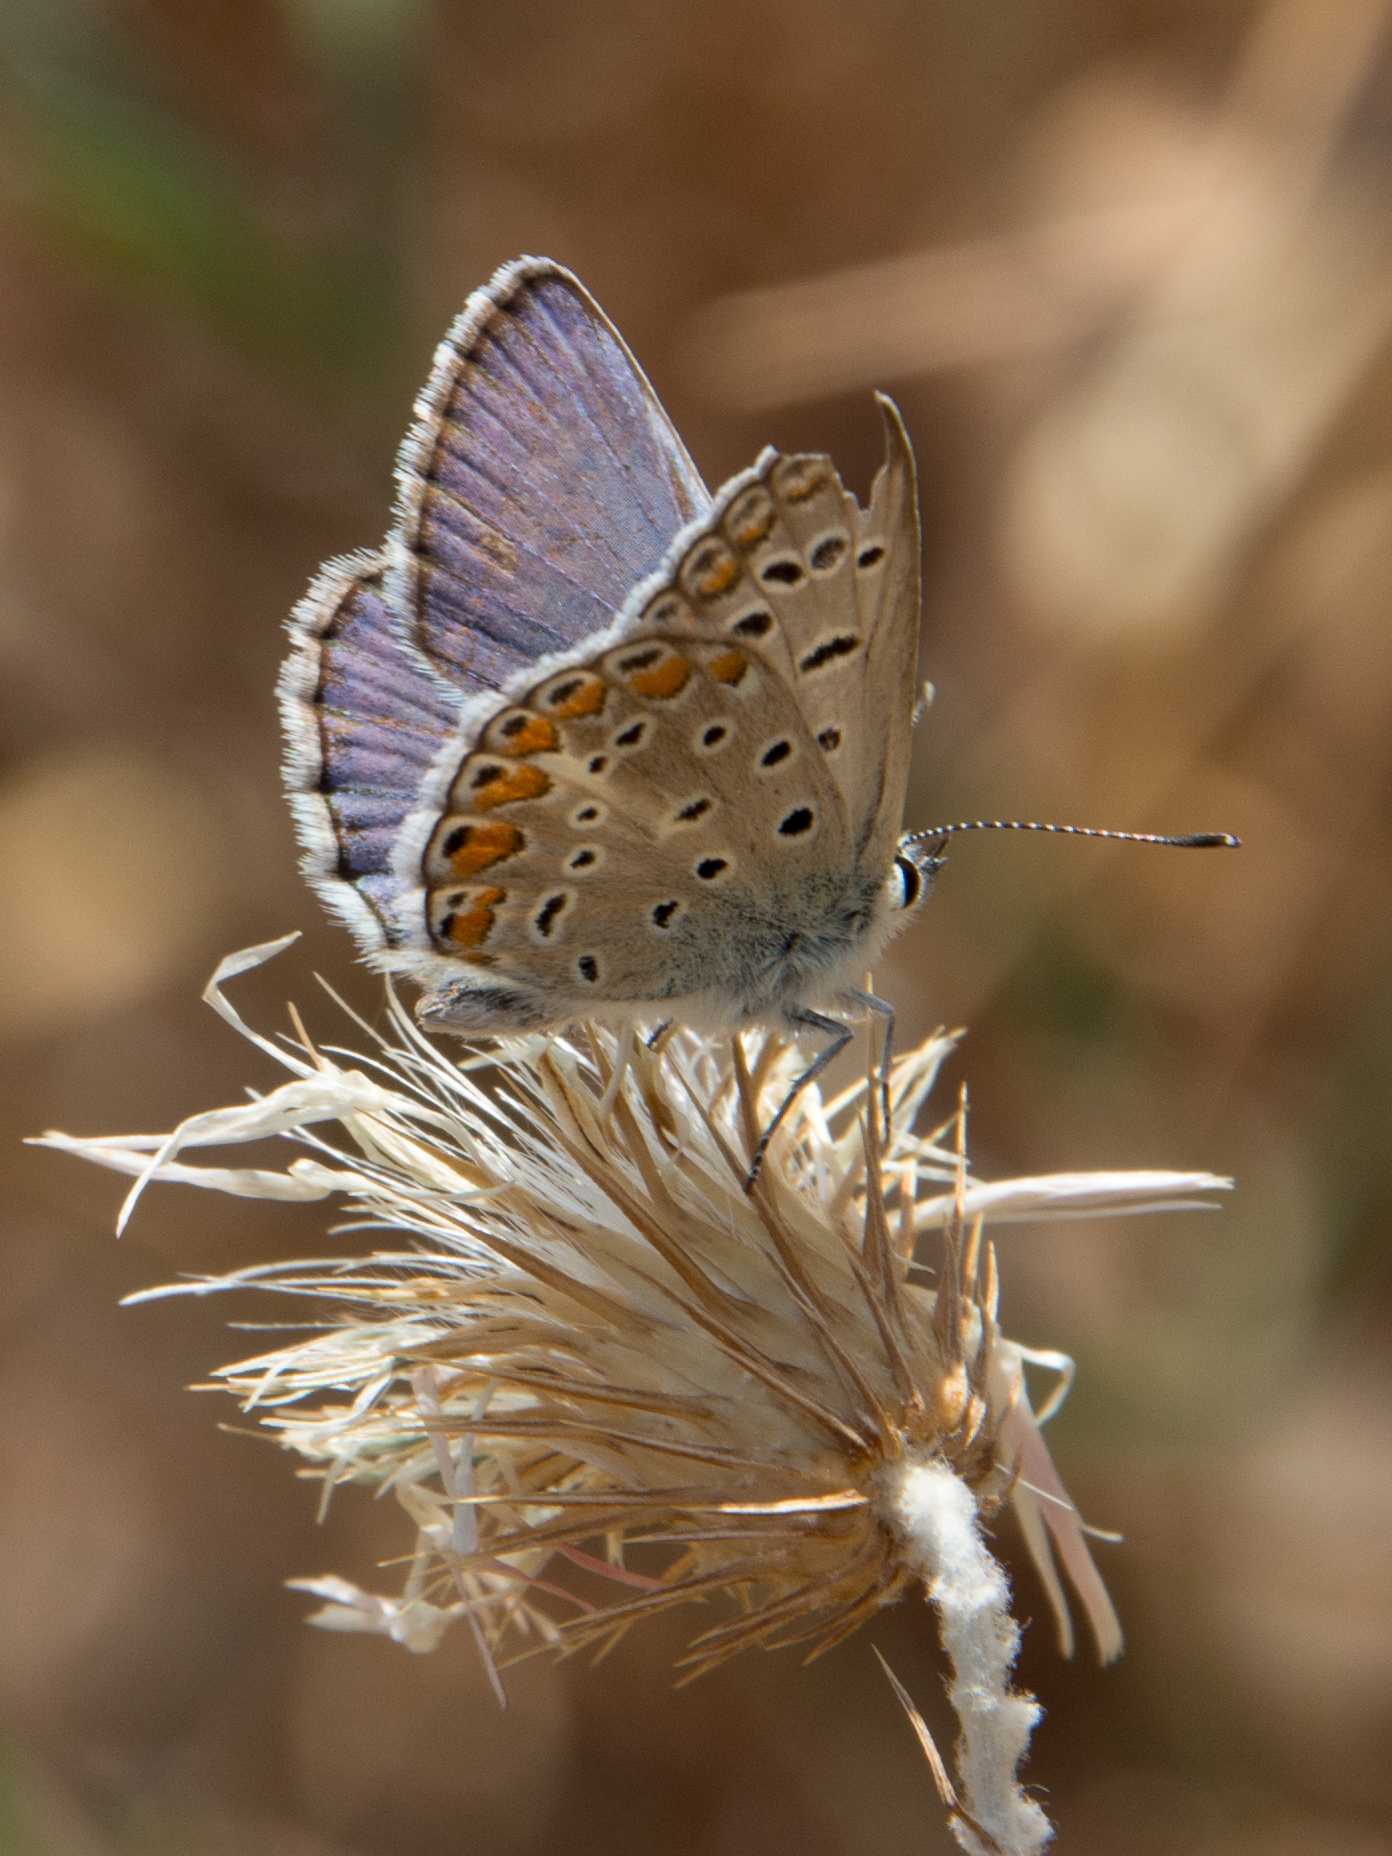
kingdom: Animalia
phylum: Arthropoda
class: Insecta
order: Lepidoptera
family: Lycaenidae
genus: Polyommatus
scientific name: Polyommatus celina
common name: Austaut's blue
